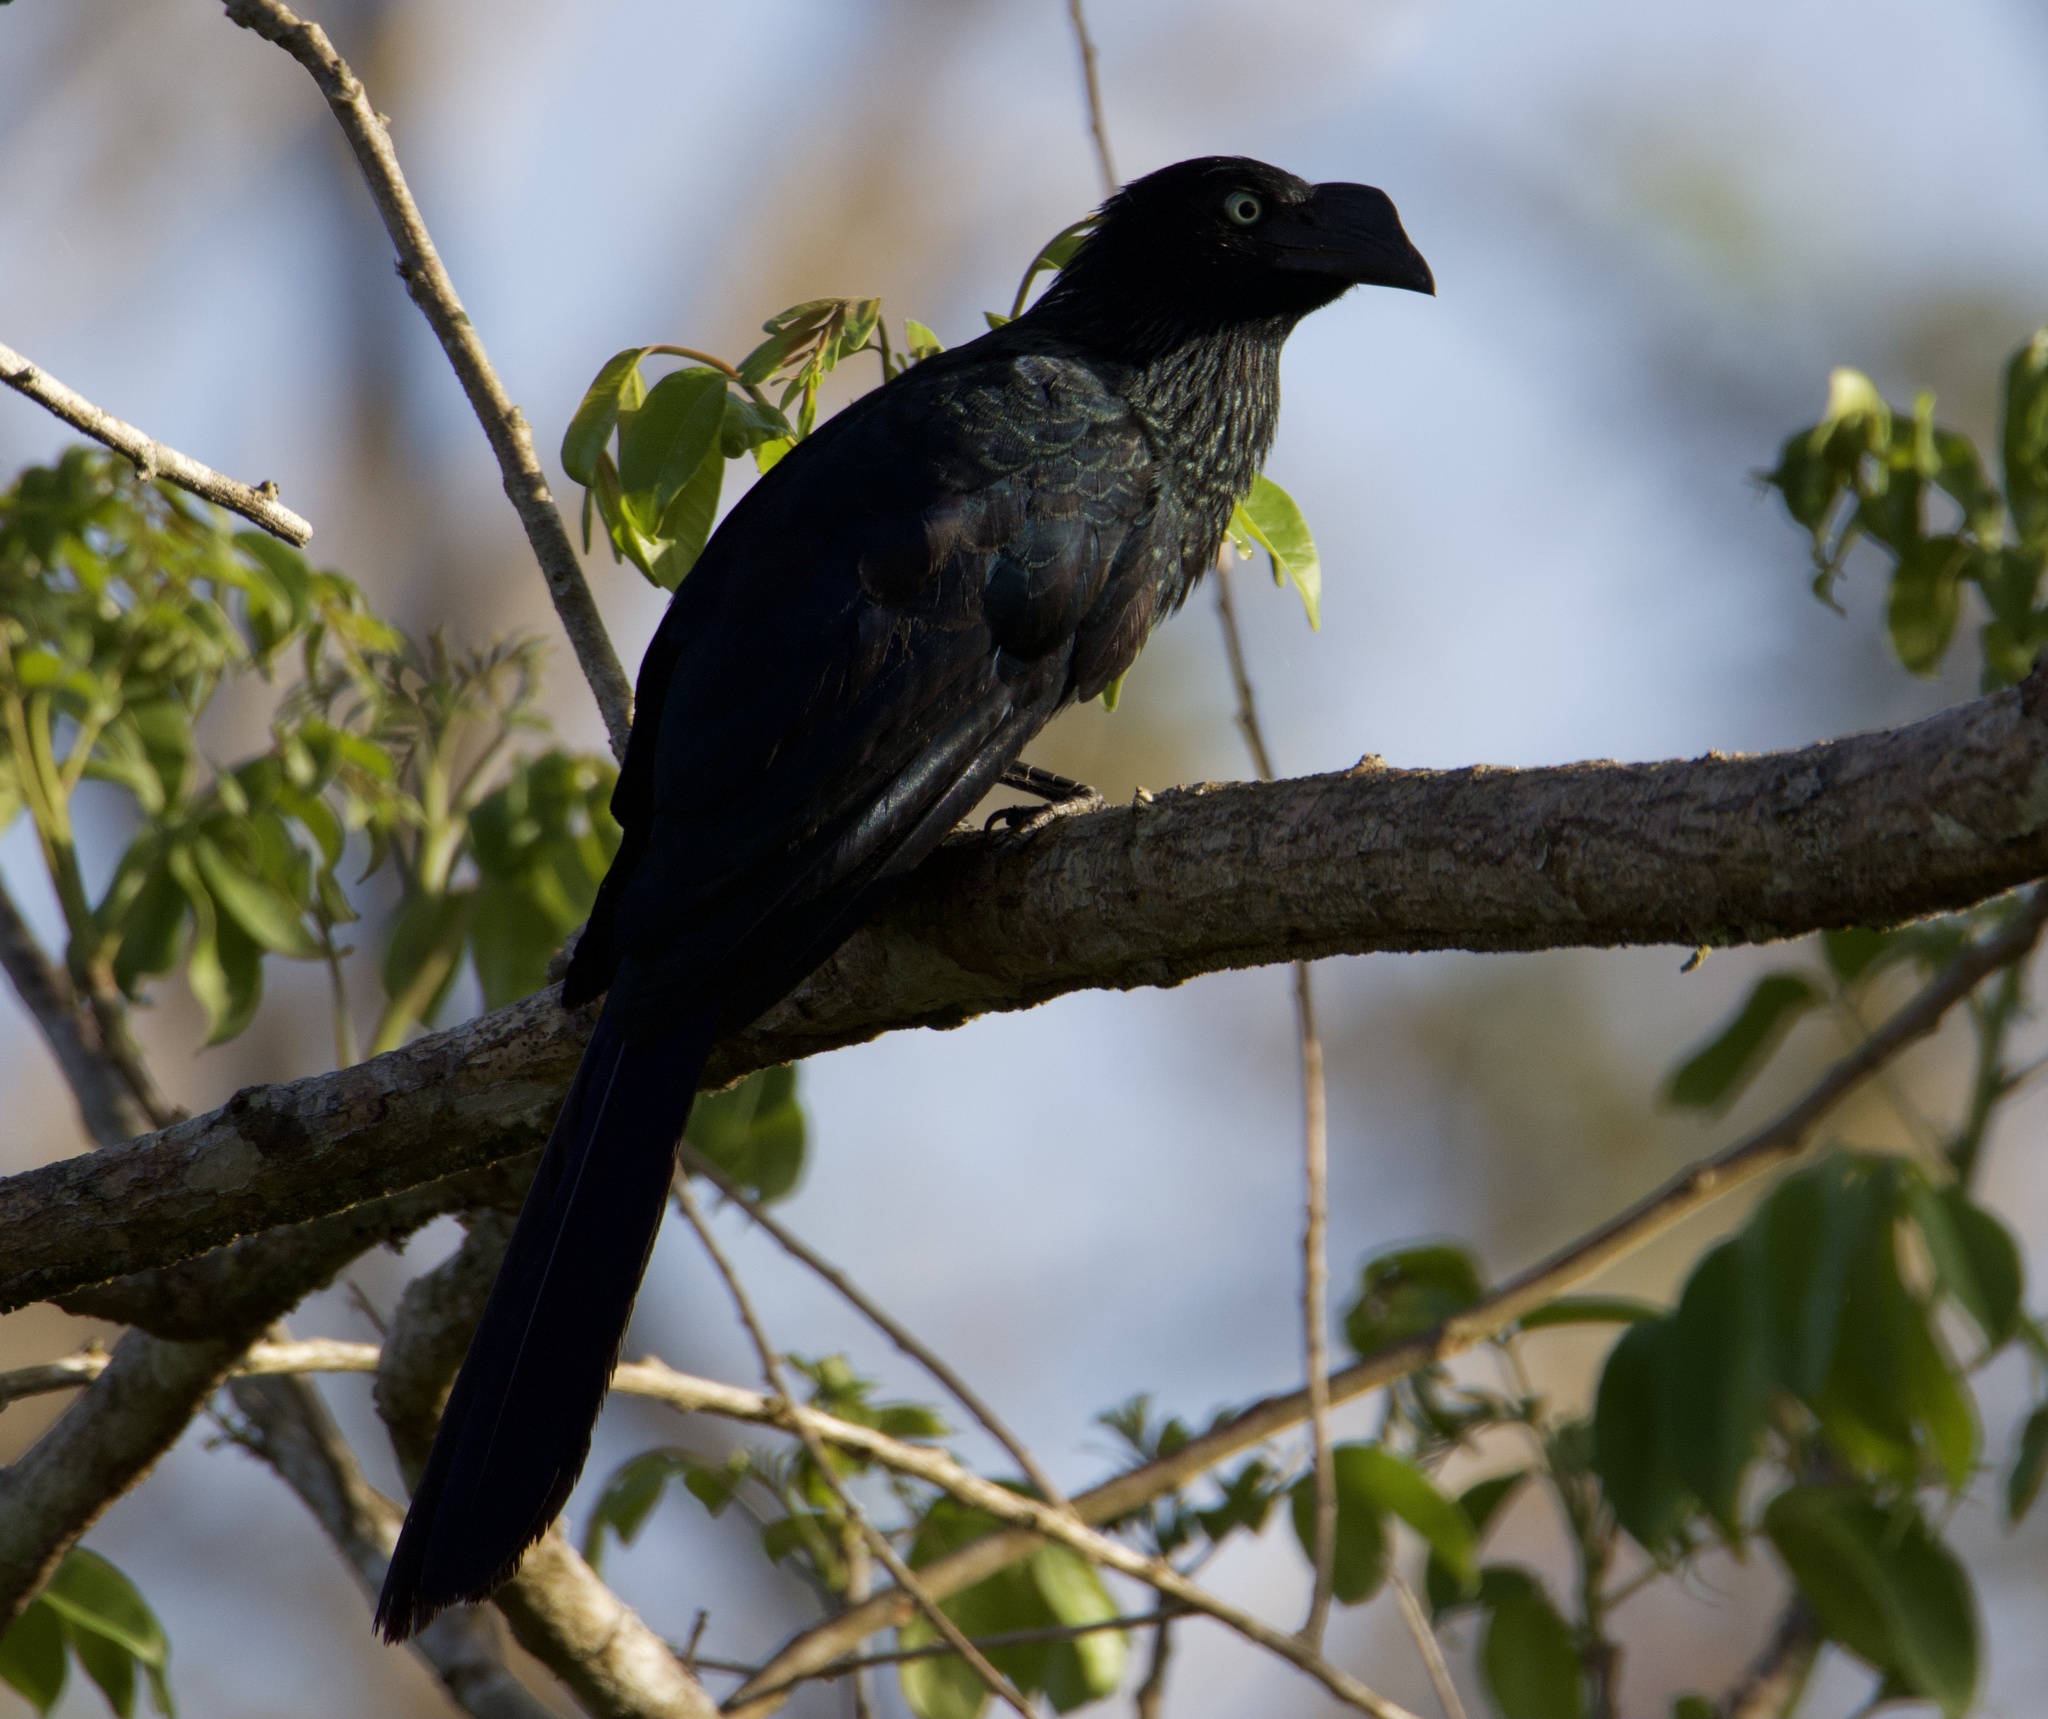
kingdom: Animalia
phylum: Chordata
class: Aves
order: Cuculiformes
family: Cuculidae
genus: Crotophaga
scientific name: Crotophaga major
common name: Greater ani
